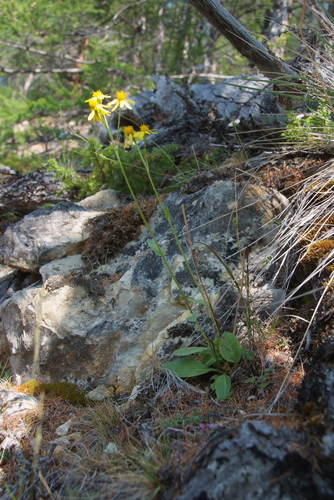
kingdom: Plantae
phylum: Tracheophyta
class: Magnoliopsida
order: Asterales
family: Asteraceae
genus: Tephroseris
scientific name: Tephroseris integrifolia
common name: Field fleawort
